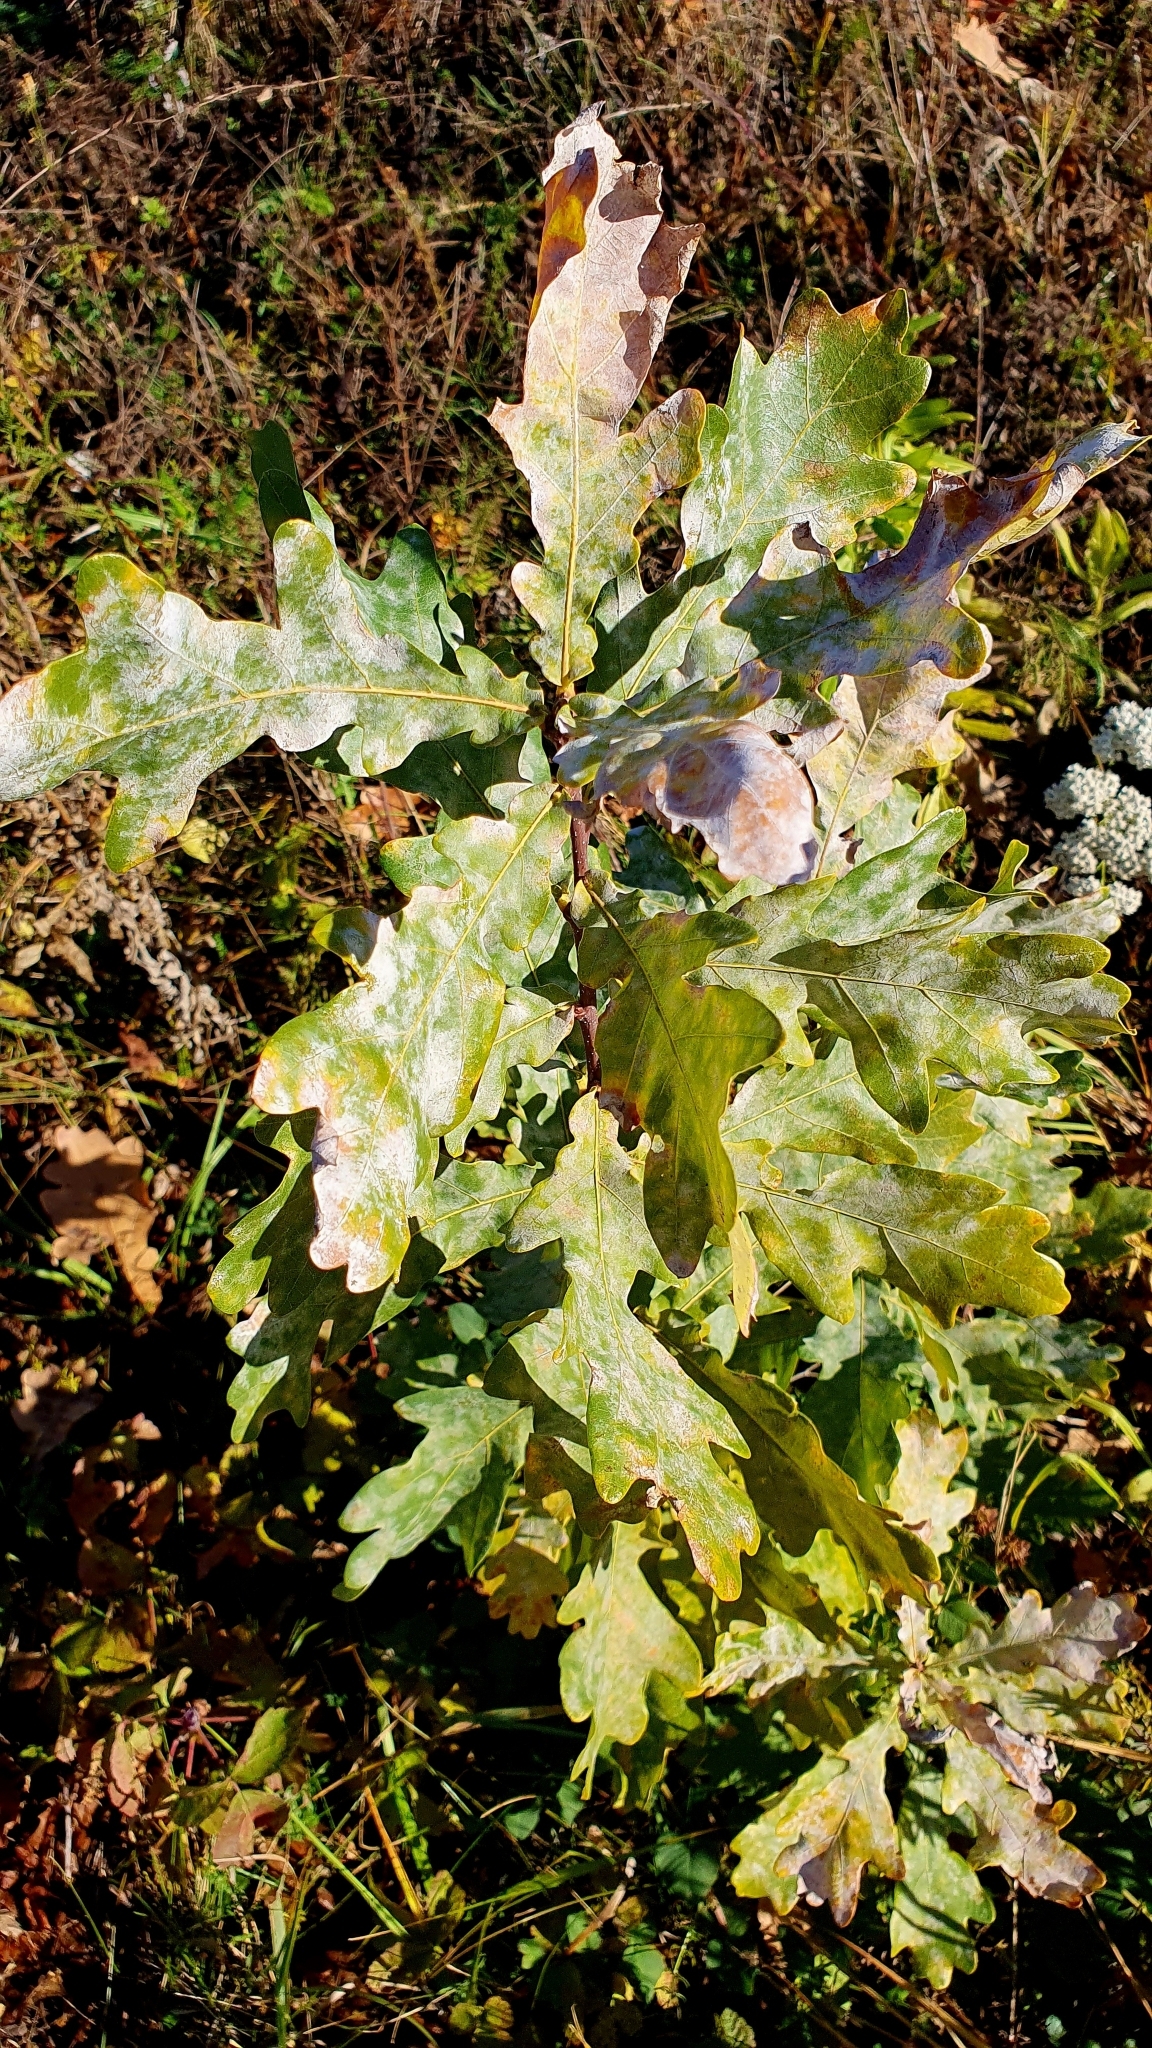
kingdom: Plantae
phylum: Tracheophyta
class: Magnoliopsida
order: Fagales
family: Fagaceae
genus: Quercus
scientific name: Quercus robur
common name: Pedunculate oak
